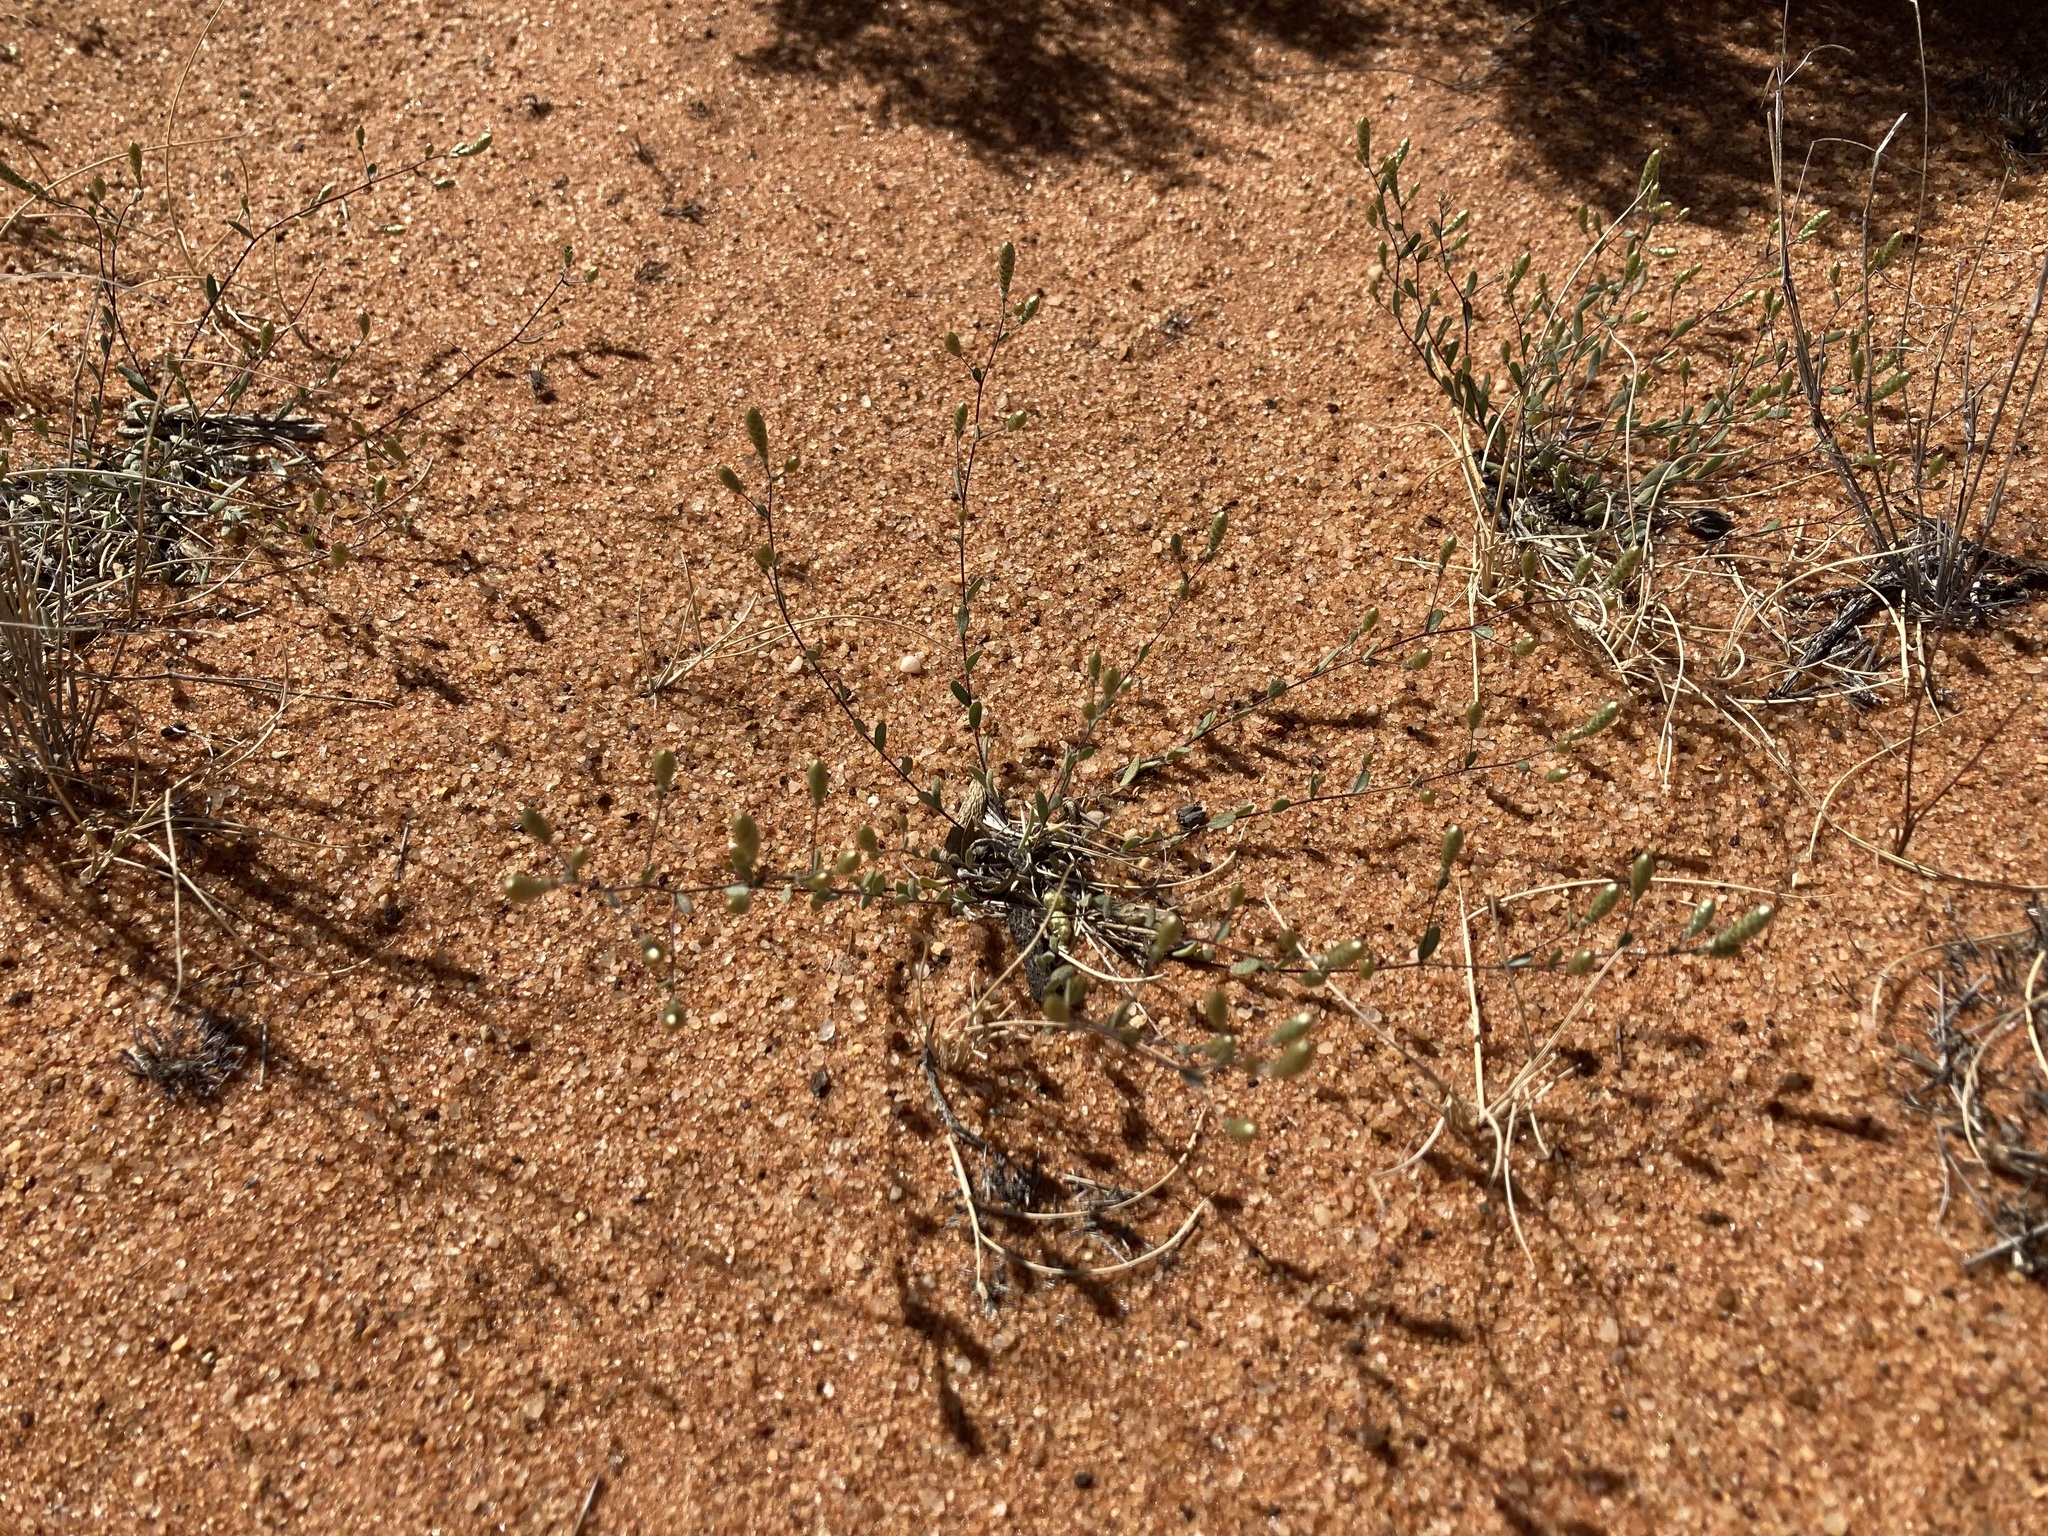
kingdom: Plantae
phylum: Tracheophyta
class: Magnoliopsida
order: Asterales
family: Asteraceae
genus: Gnephosis
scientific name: Gnephosis tenuissima
